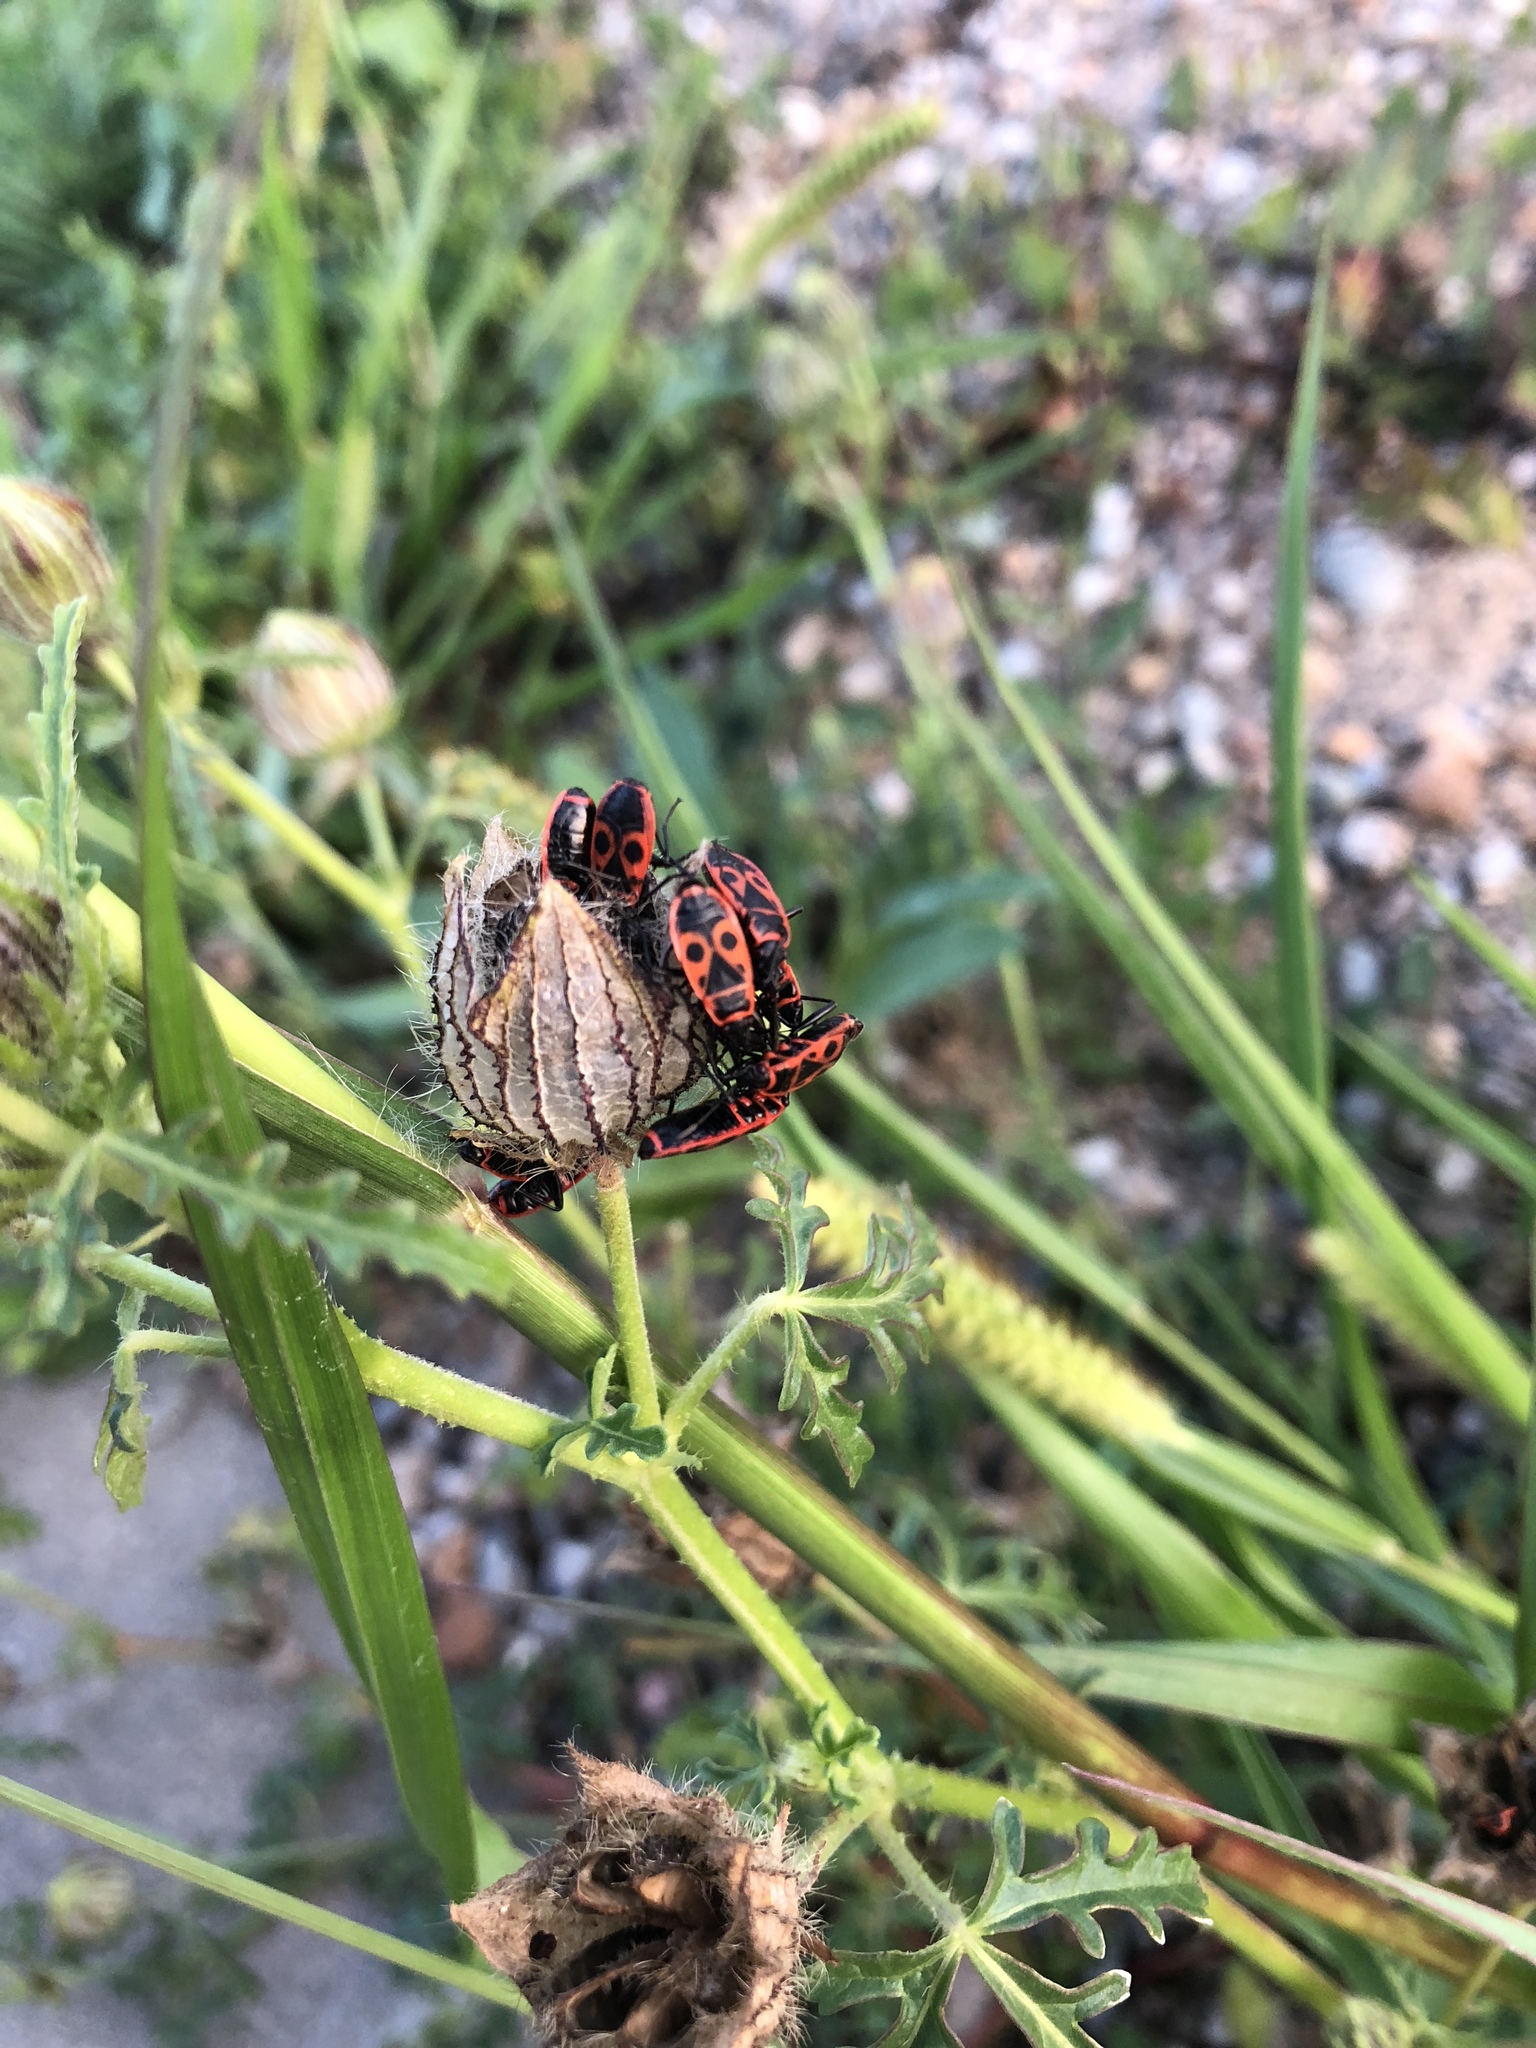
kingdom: Animalia
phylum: Arthropoda
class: Insecta
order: Hemiptera
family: Pyrrhocoridae
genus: Pyrrhocoris
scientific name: Pyrrhocoris apterus
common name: Firebug
